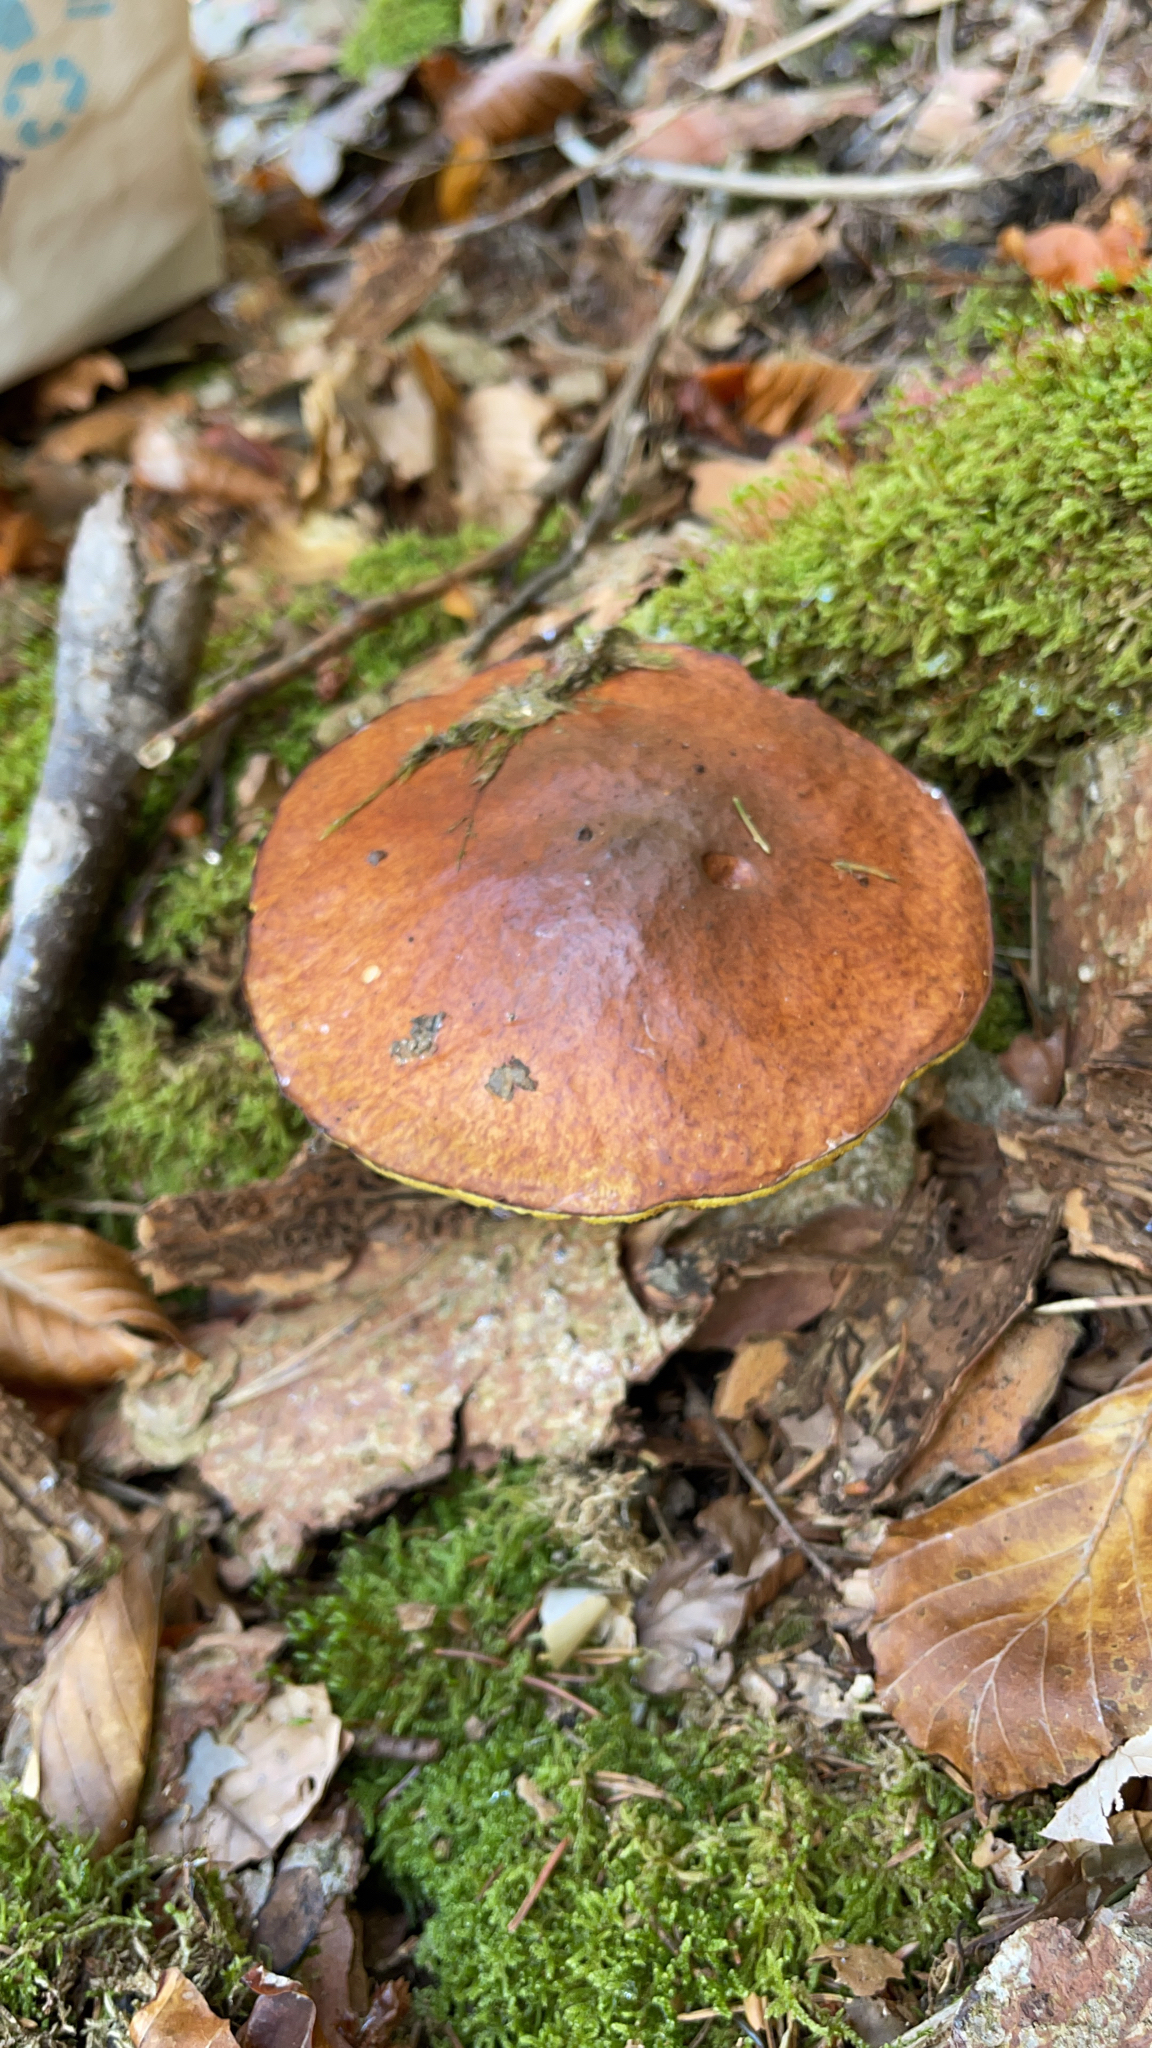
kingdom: Fungi
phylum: Basidiomycota
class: Agaricomycetes
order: Boletales
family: Suillaceae
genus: Suillus
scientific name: Suillus luteus
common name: Slippery jack
